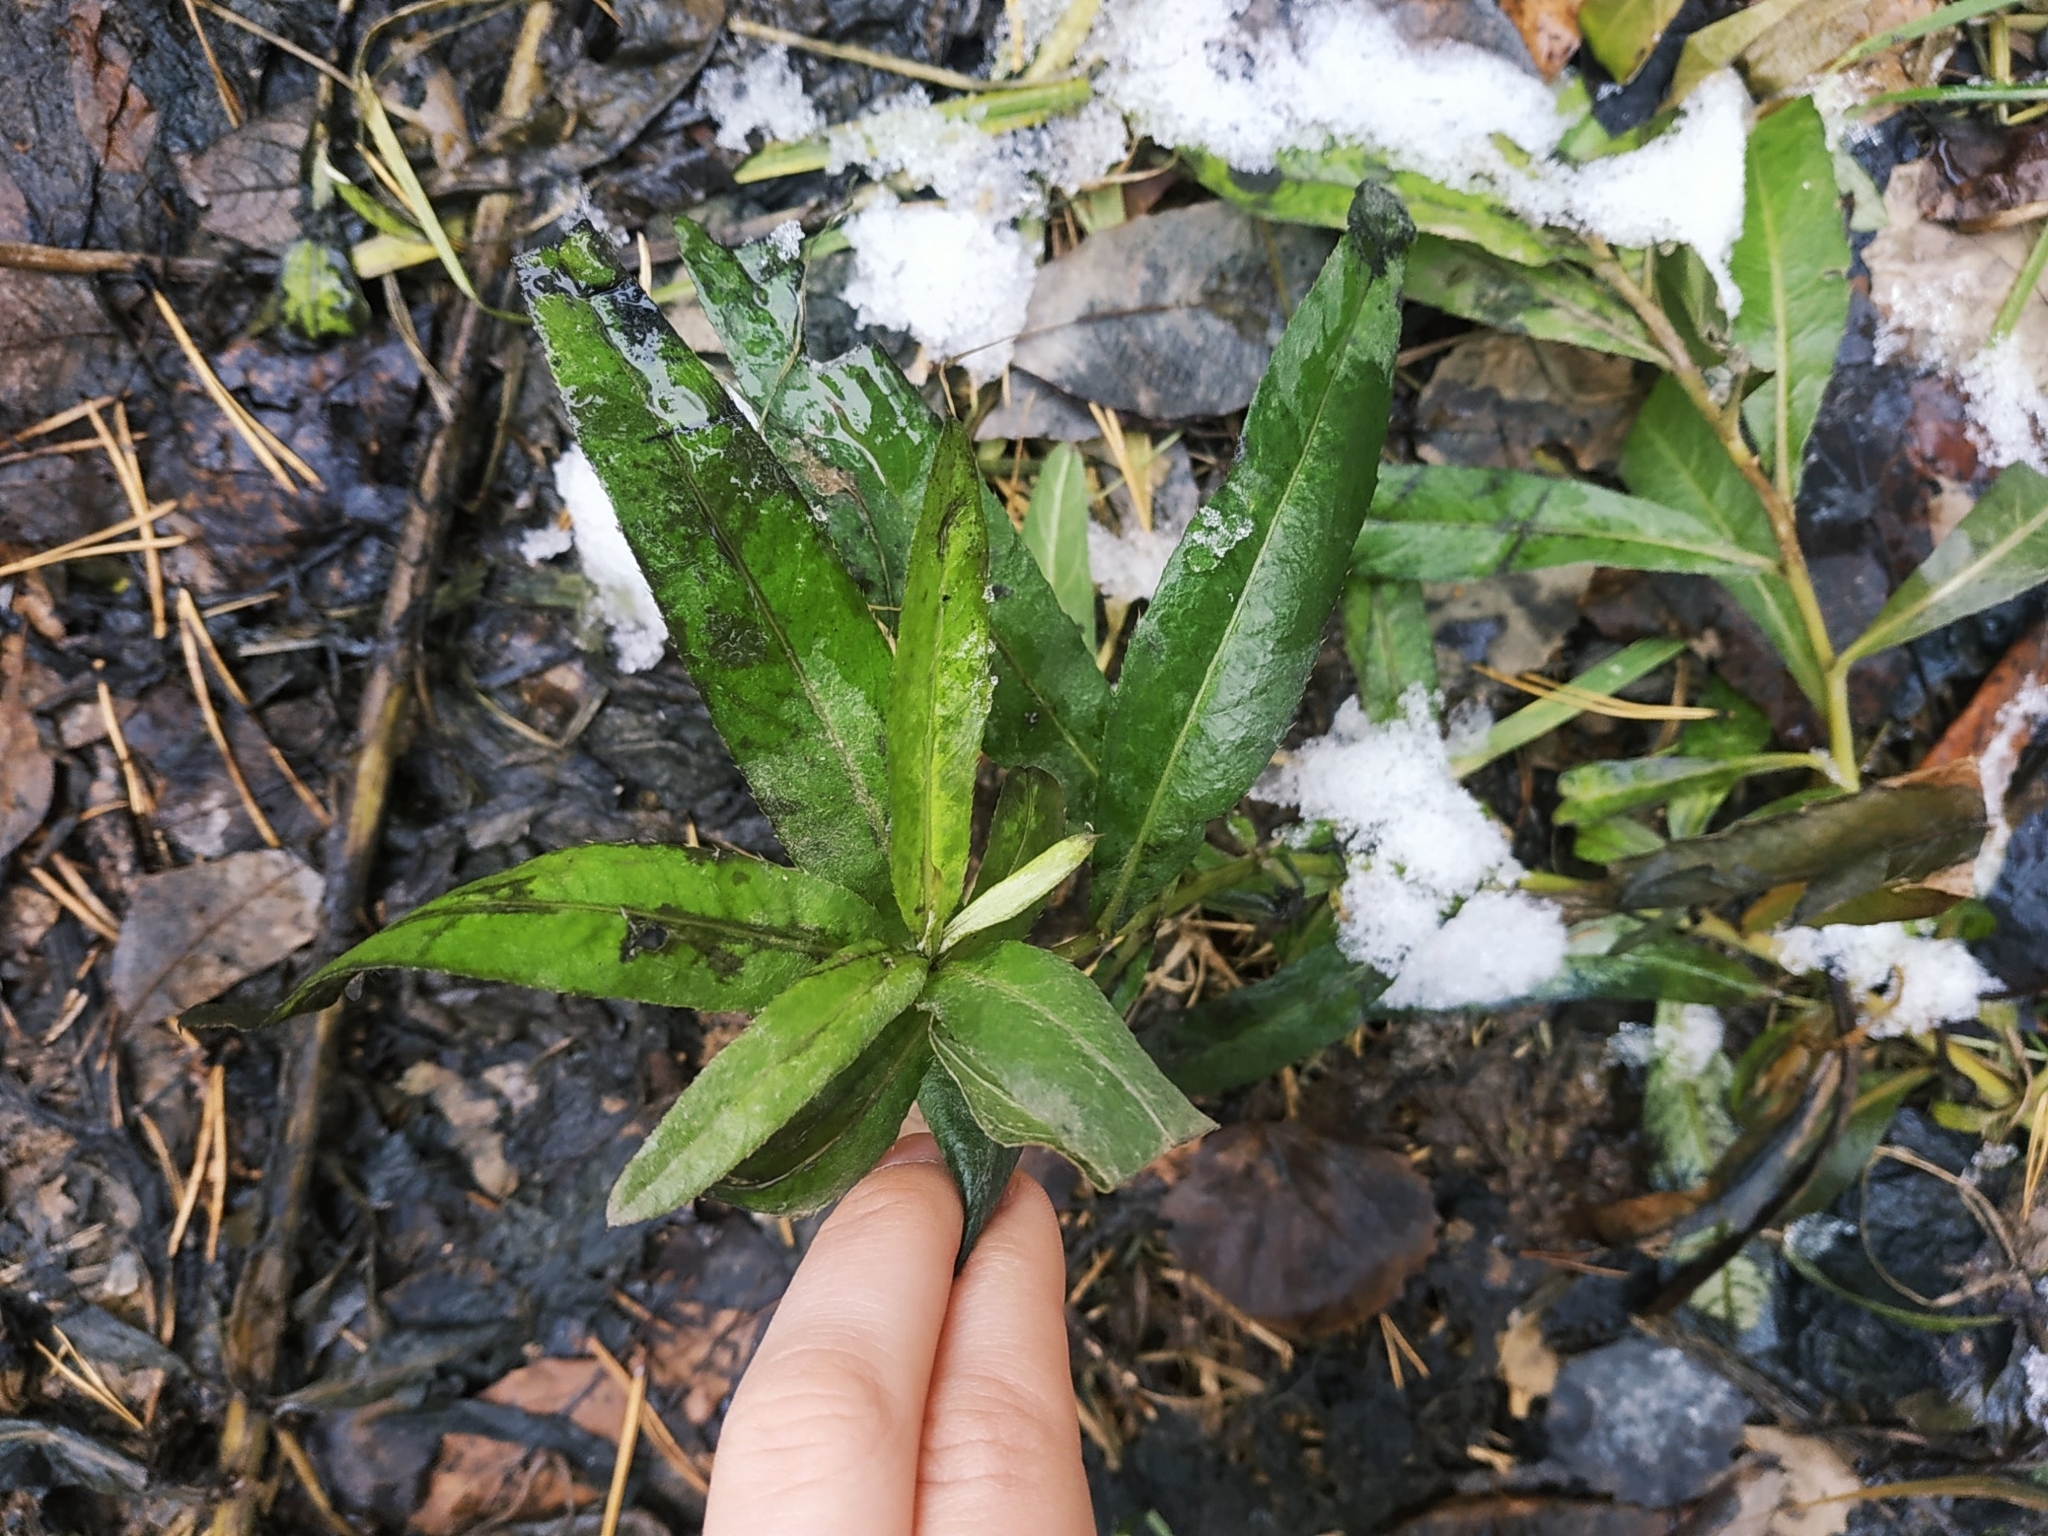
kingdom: Plantae
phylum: Tracheophyta
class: Magnoliopsida
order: Asterales
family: Asteraceae
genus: Cirsium
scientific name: Cirsium arvense
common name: Creeping thistle
